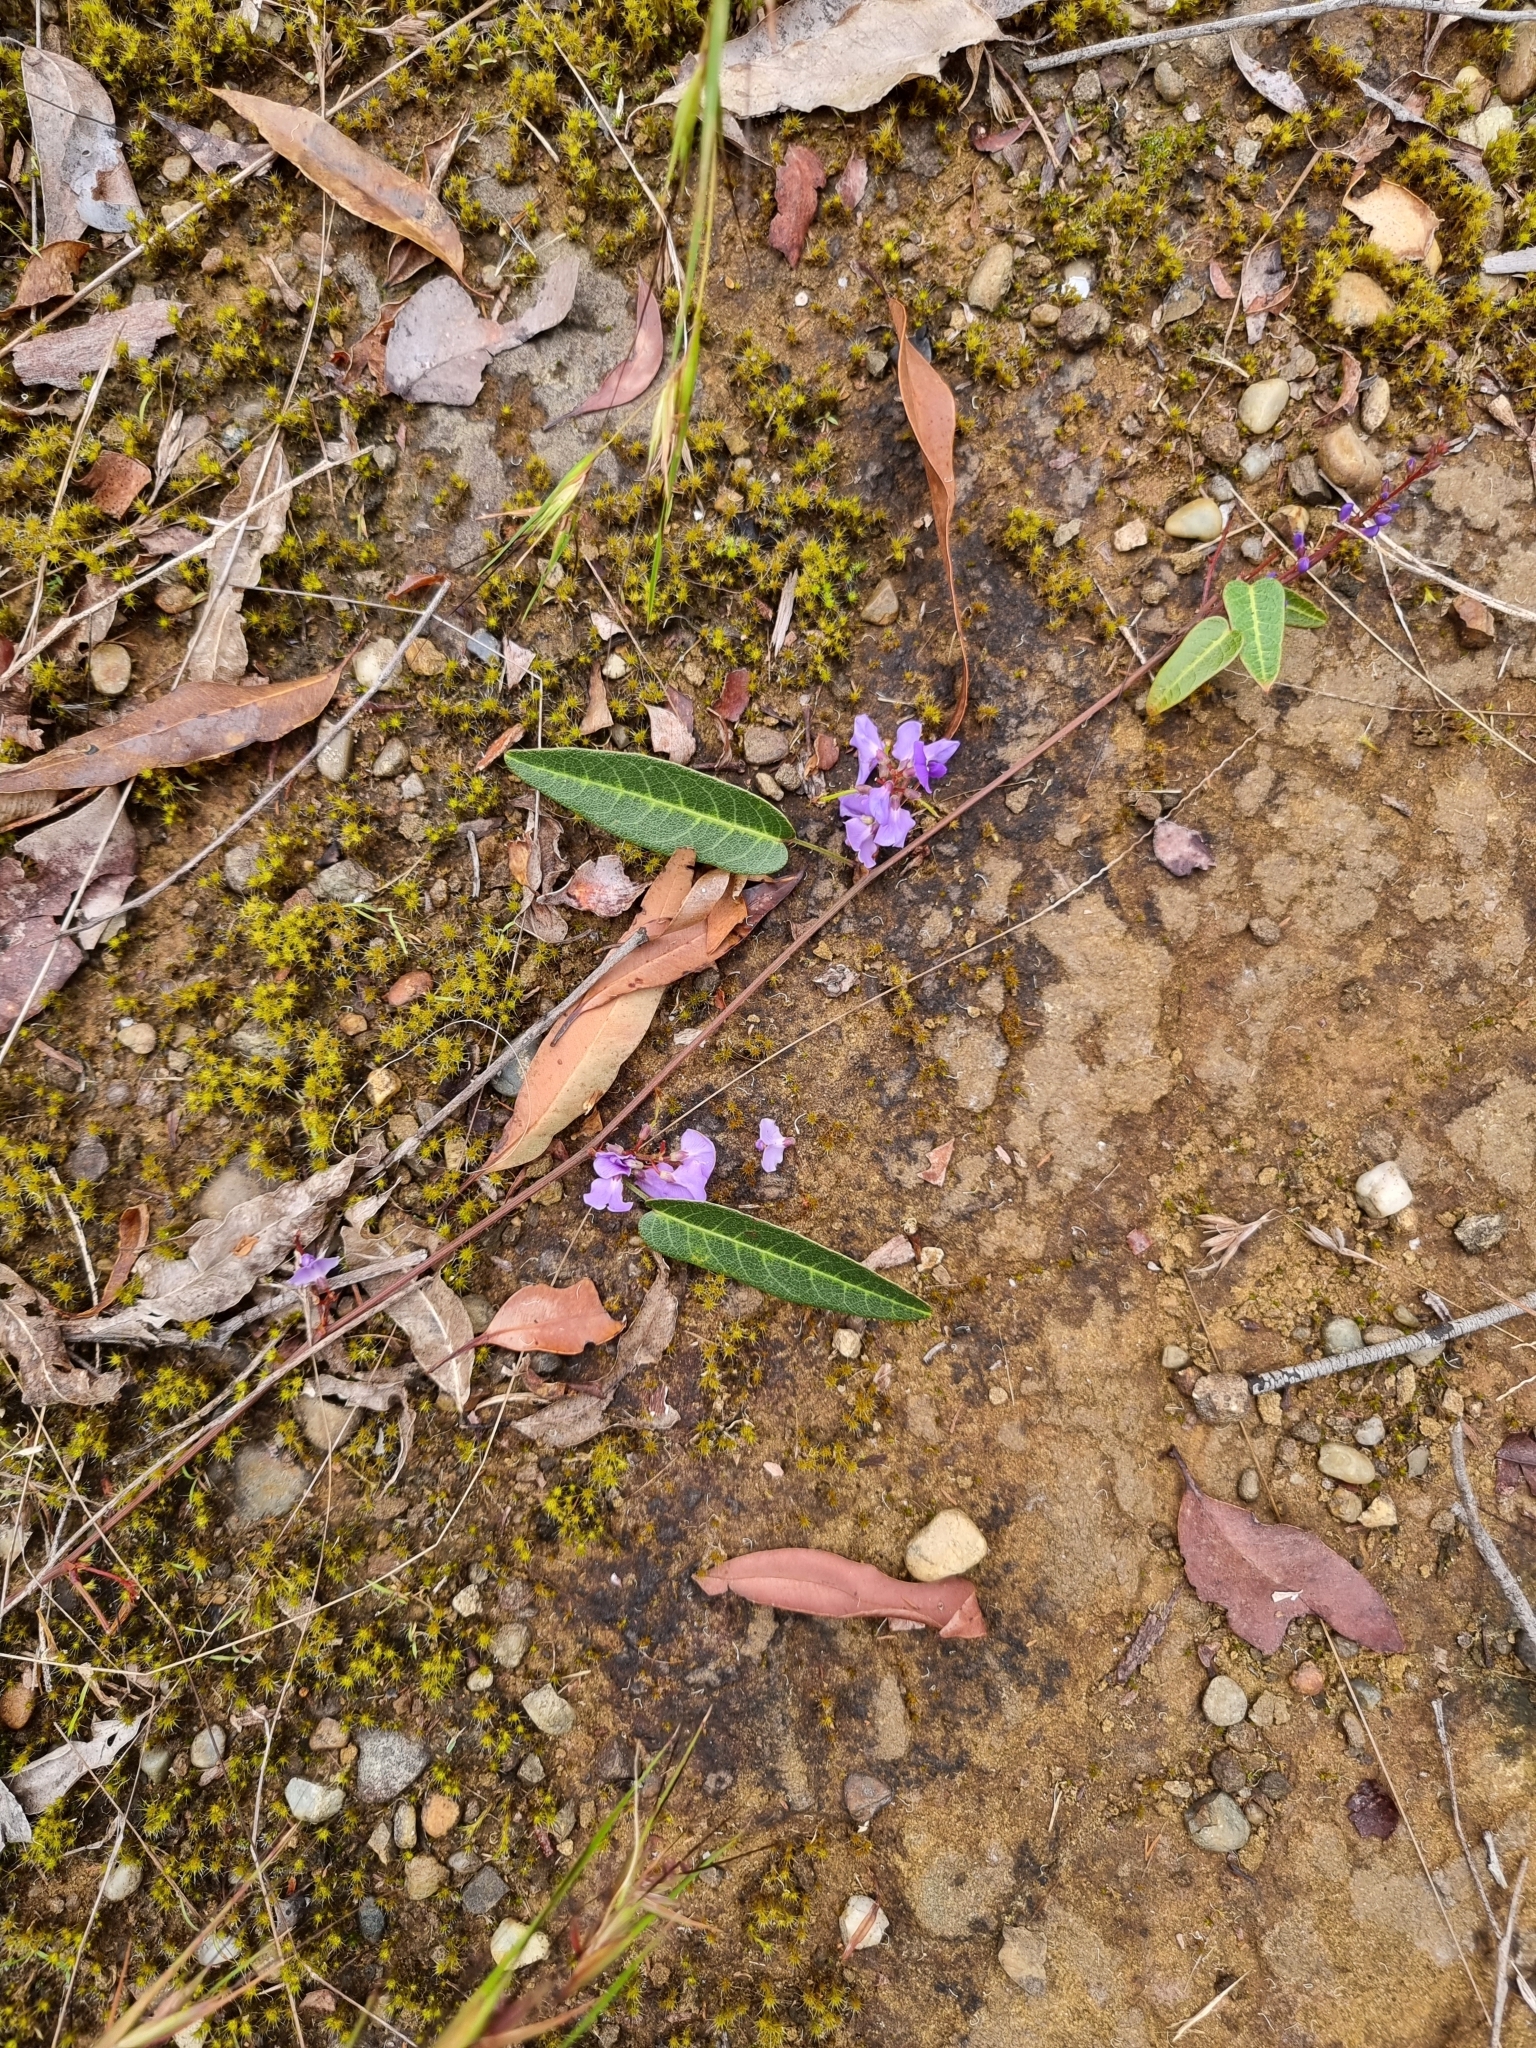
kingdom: Plantae
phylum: Tracheophyta
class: Magnoliopsida
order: Fabales
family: Fabaceae
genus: Hardenbergia
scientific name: Hardenbergia violacea
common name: Coral-pea
